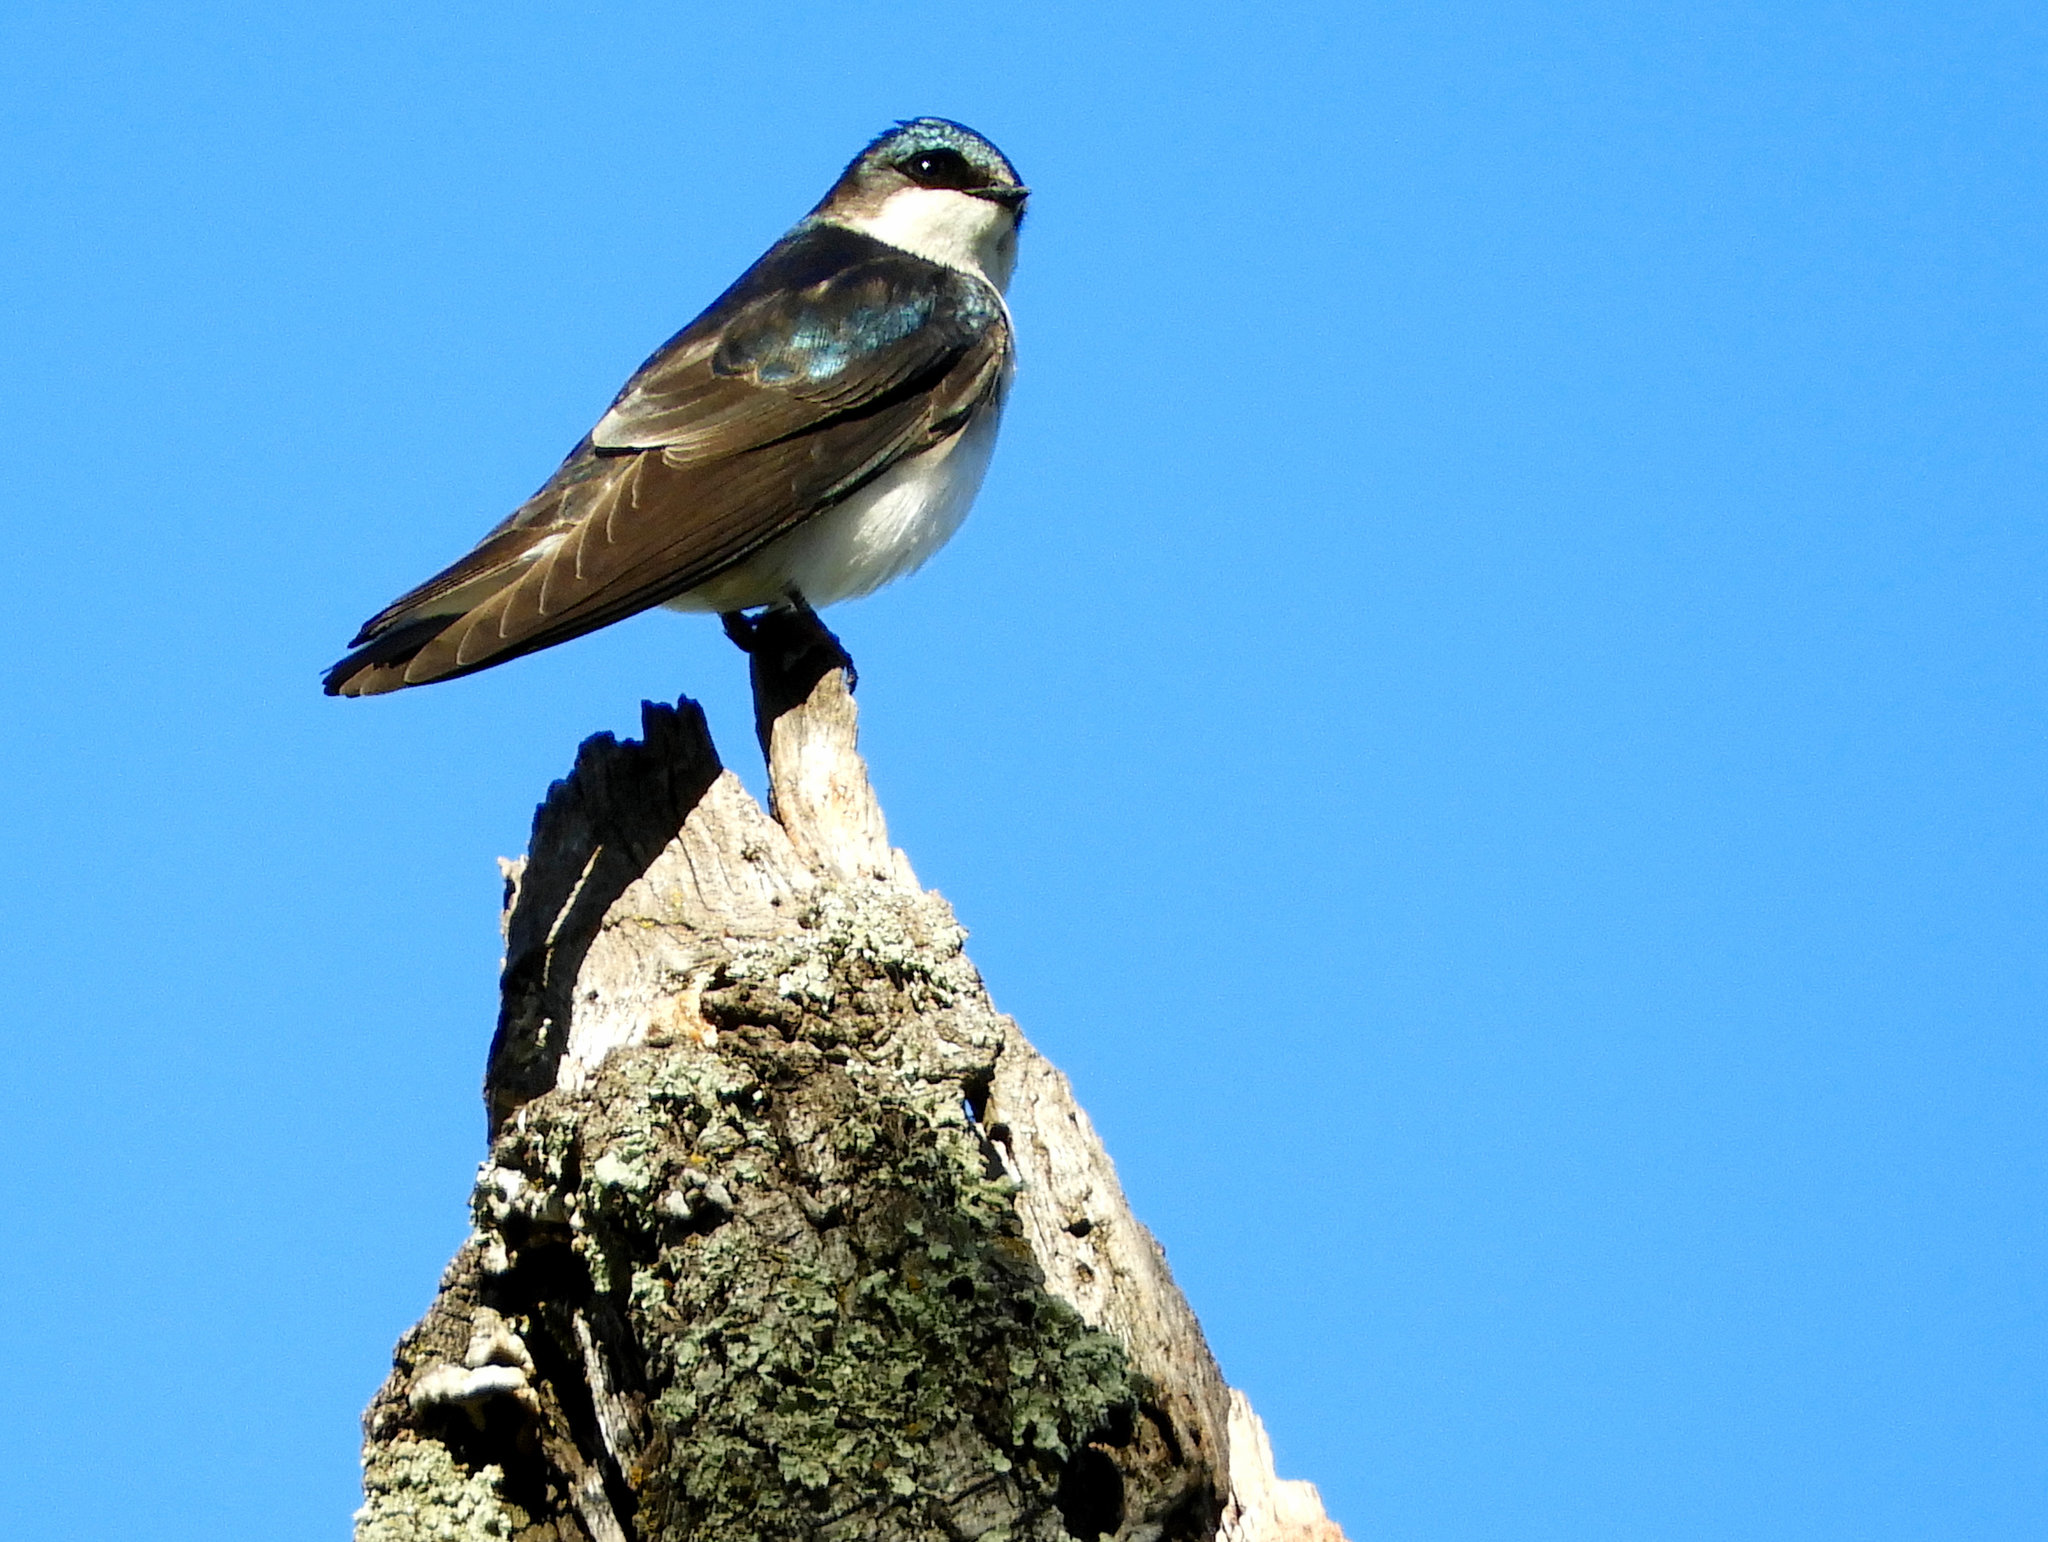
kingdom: Animalia
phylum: Chordata
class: Aves
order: Passeriformes
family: Hirundinidae
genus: Tachycineta
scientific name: Tachycineta bicolor
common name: Tree swallow
